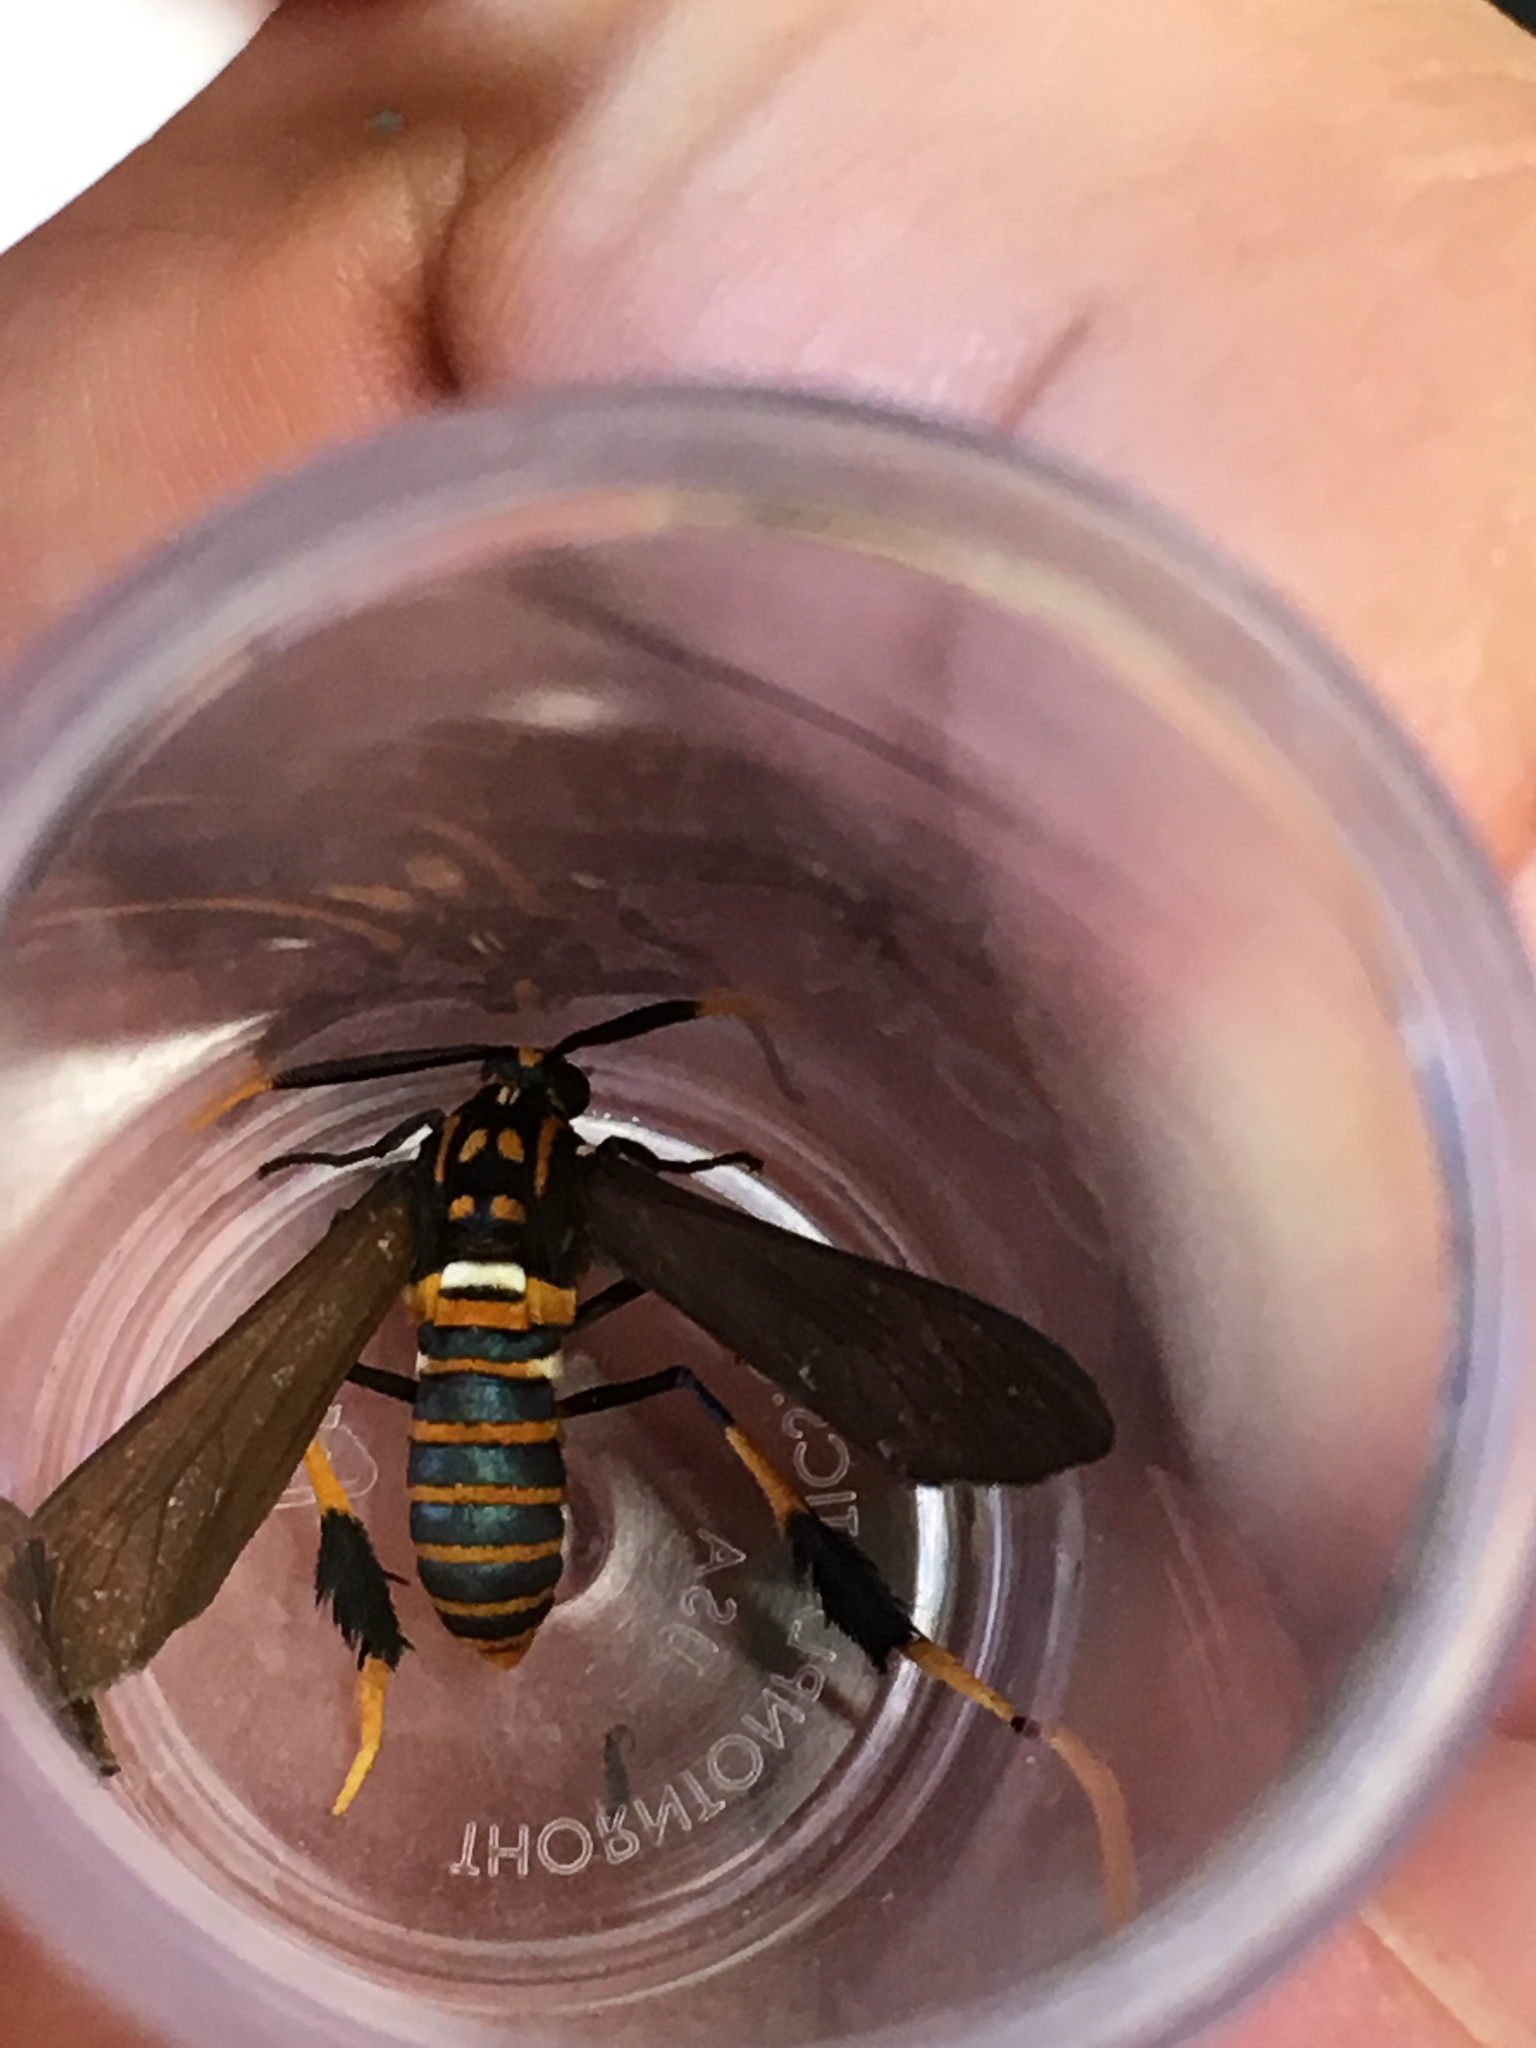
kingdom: Animalia
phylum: Arthropoda
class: Insecta
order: Lepidoptera
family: Erebidae
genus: Horama
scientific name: Horama panthalon
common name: Texas wasp moth
